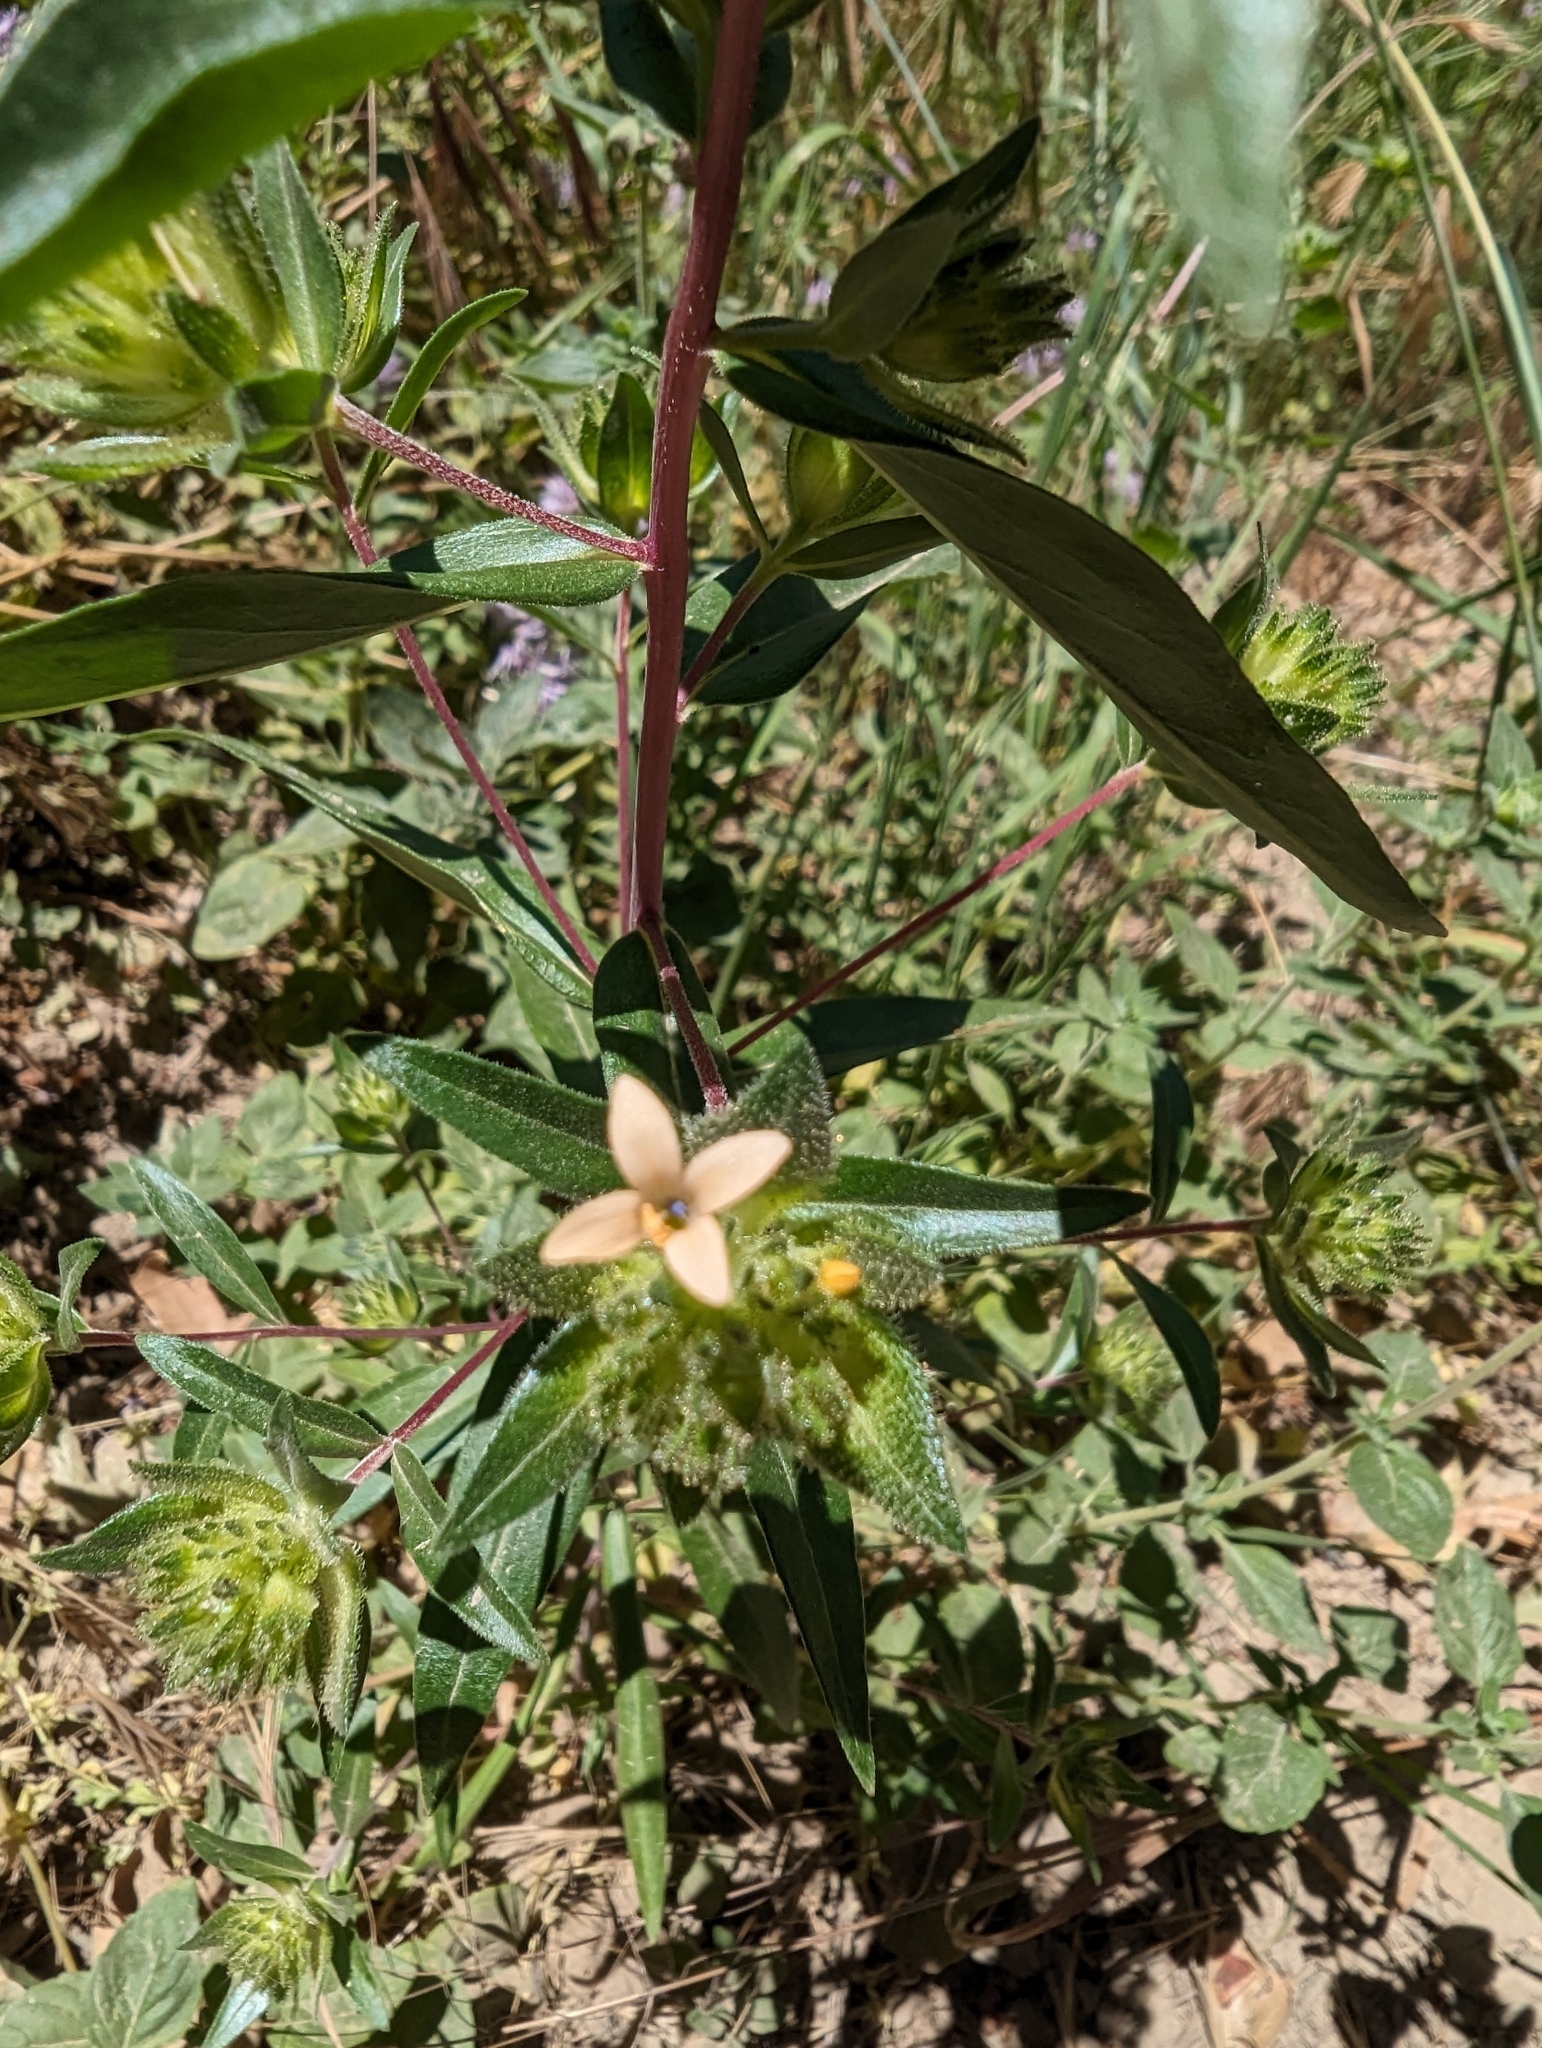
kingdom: Plantae
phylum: Tracheophyta
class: Magnoliopsida
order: Ericales
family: Polemoniaceae
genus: Collomia
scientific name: Collomia grandiflora
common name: California strawflower
